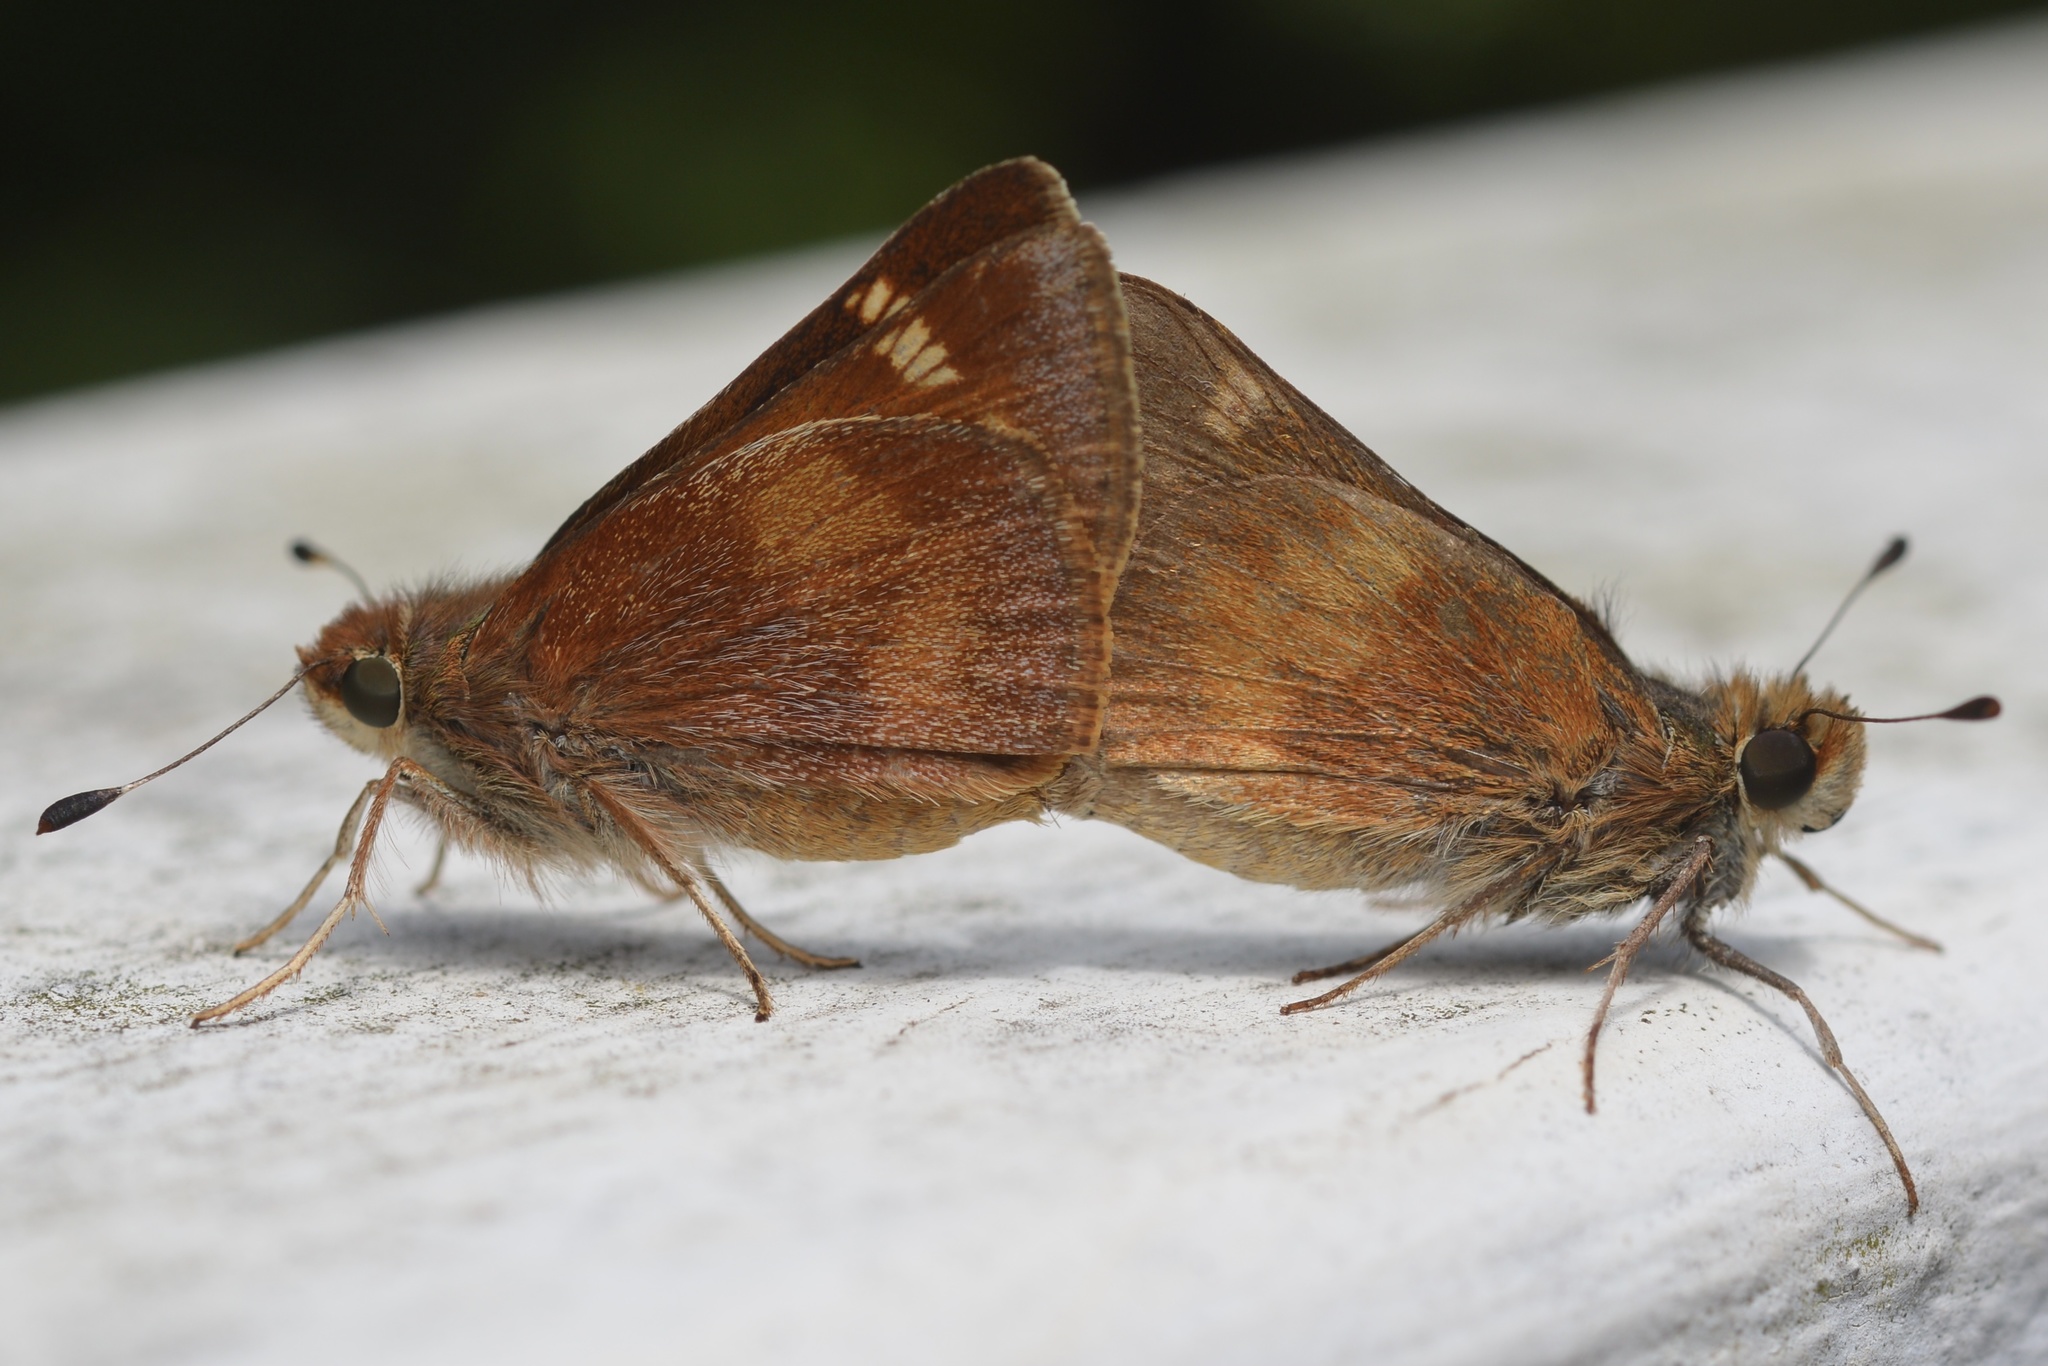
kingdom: Animalia
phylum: Arthropoda
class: Insecta
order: Lepidoptera
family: Hesperiidae
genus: Lon
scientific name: Lon melane
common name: Umber skipper
